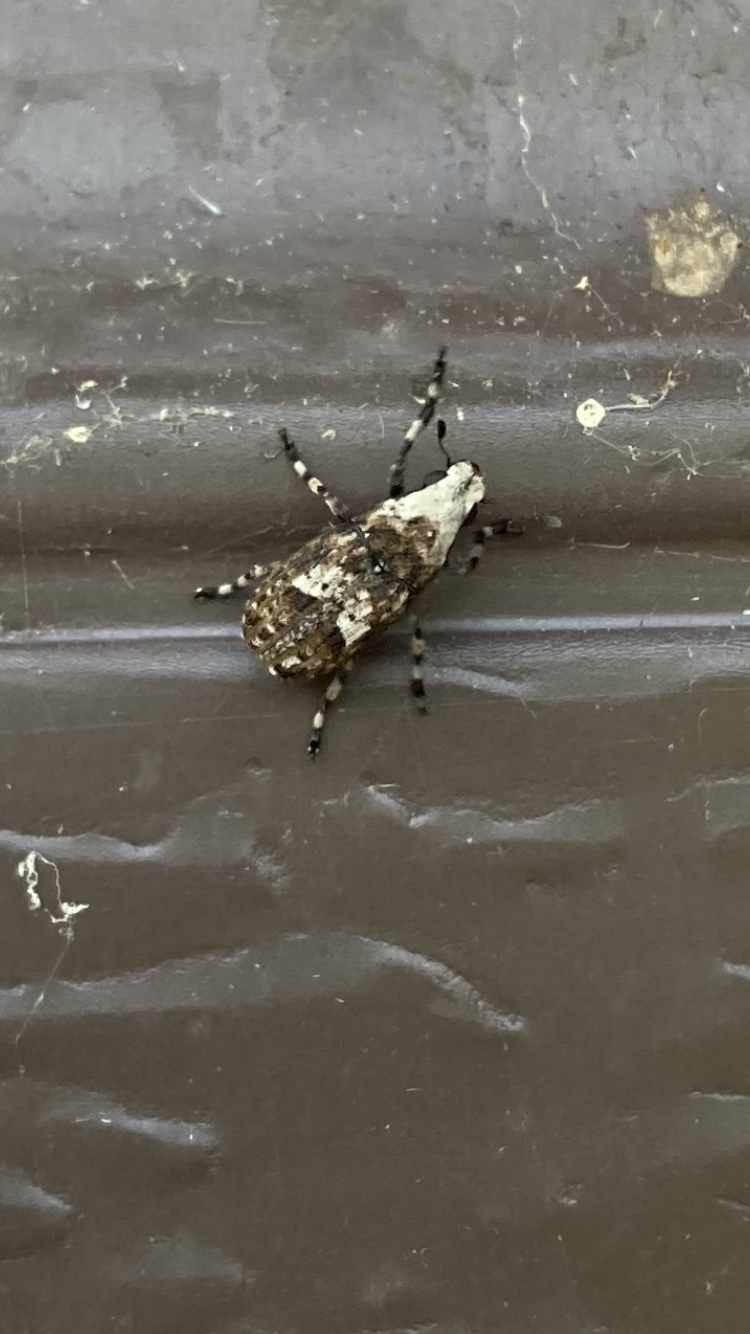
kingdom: Animalia
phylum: Arthropoda
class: Insecta
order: Coleoptera
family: Anthribidae
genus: Euparius
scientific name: Euparius marmoreus
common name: Marbled fungus weevil
